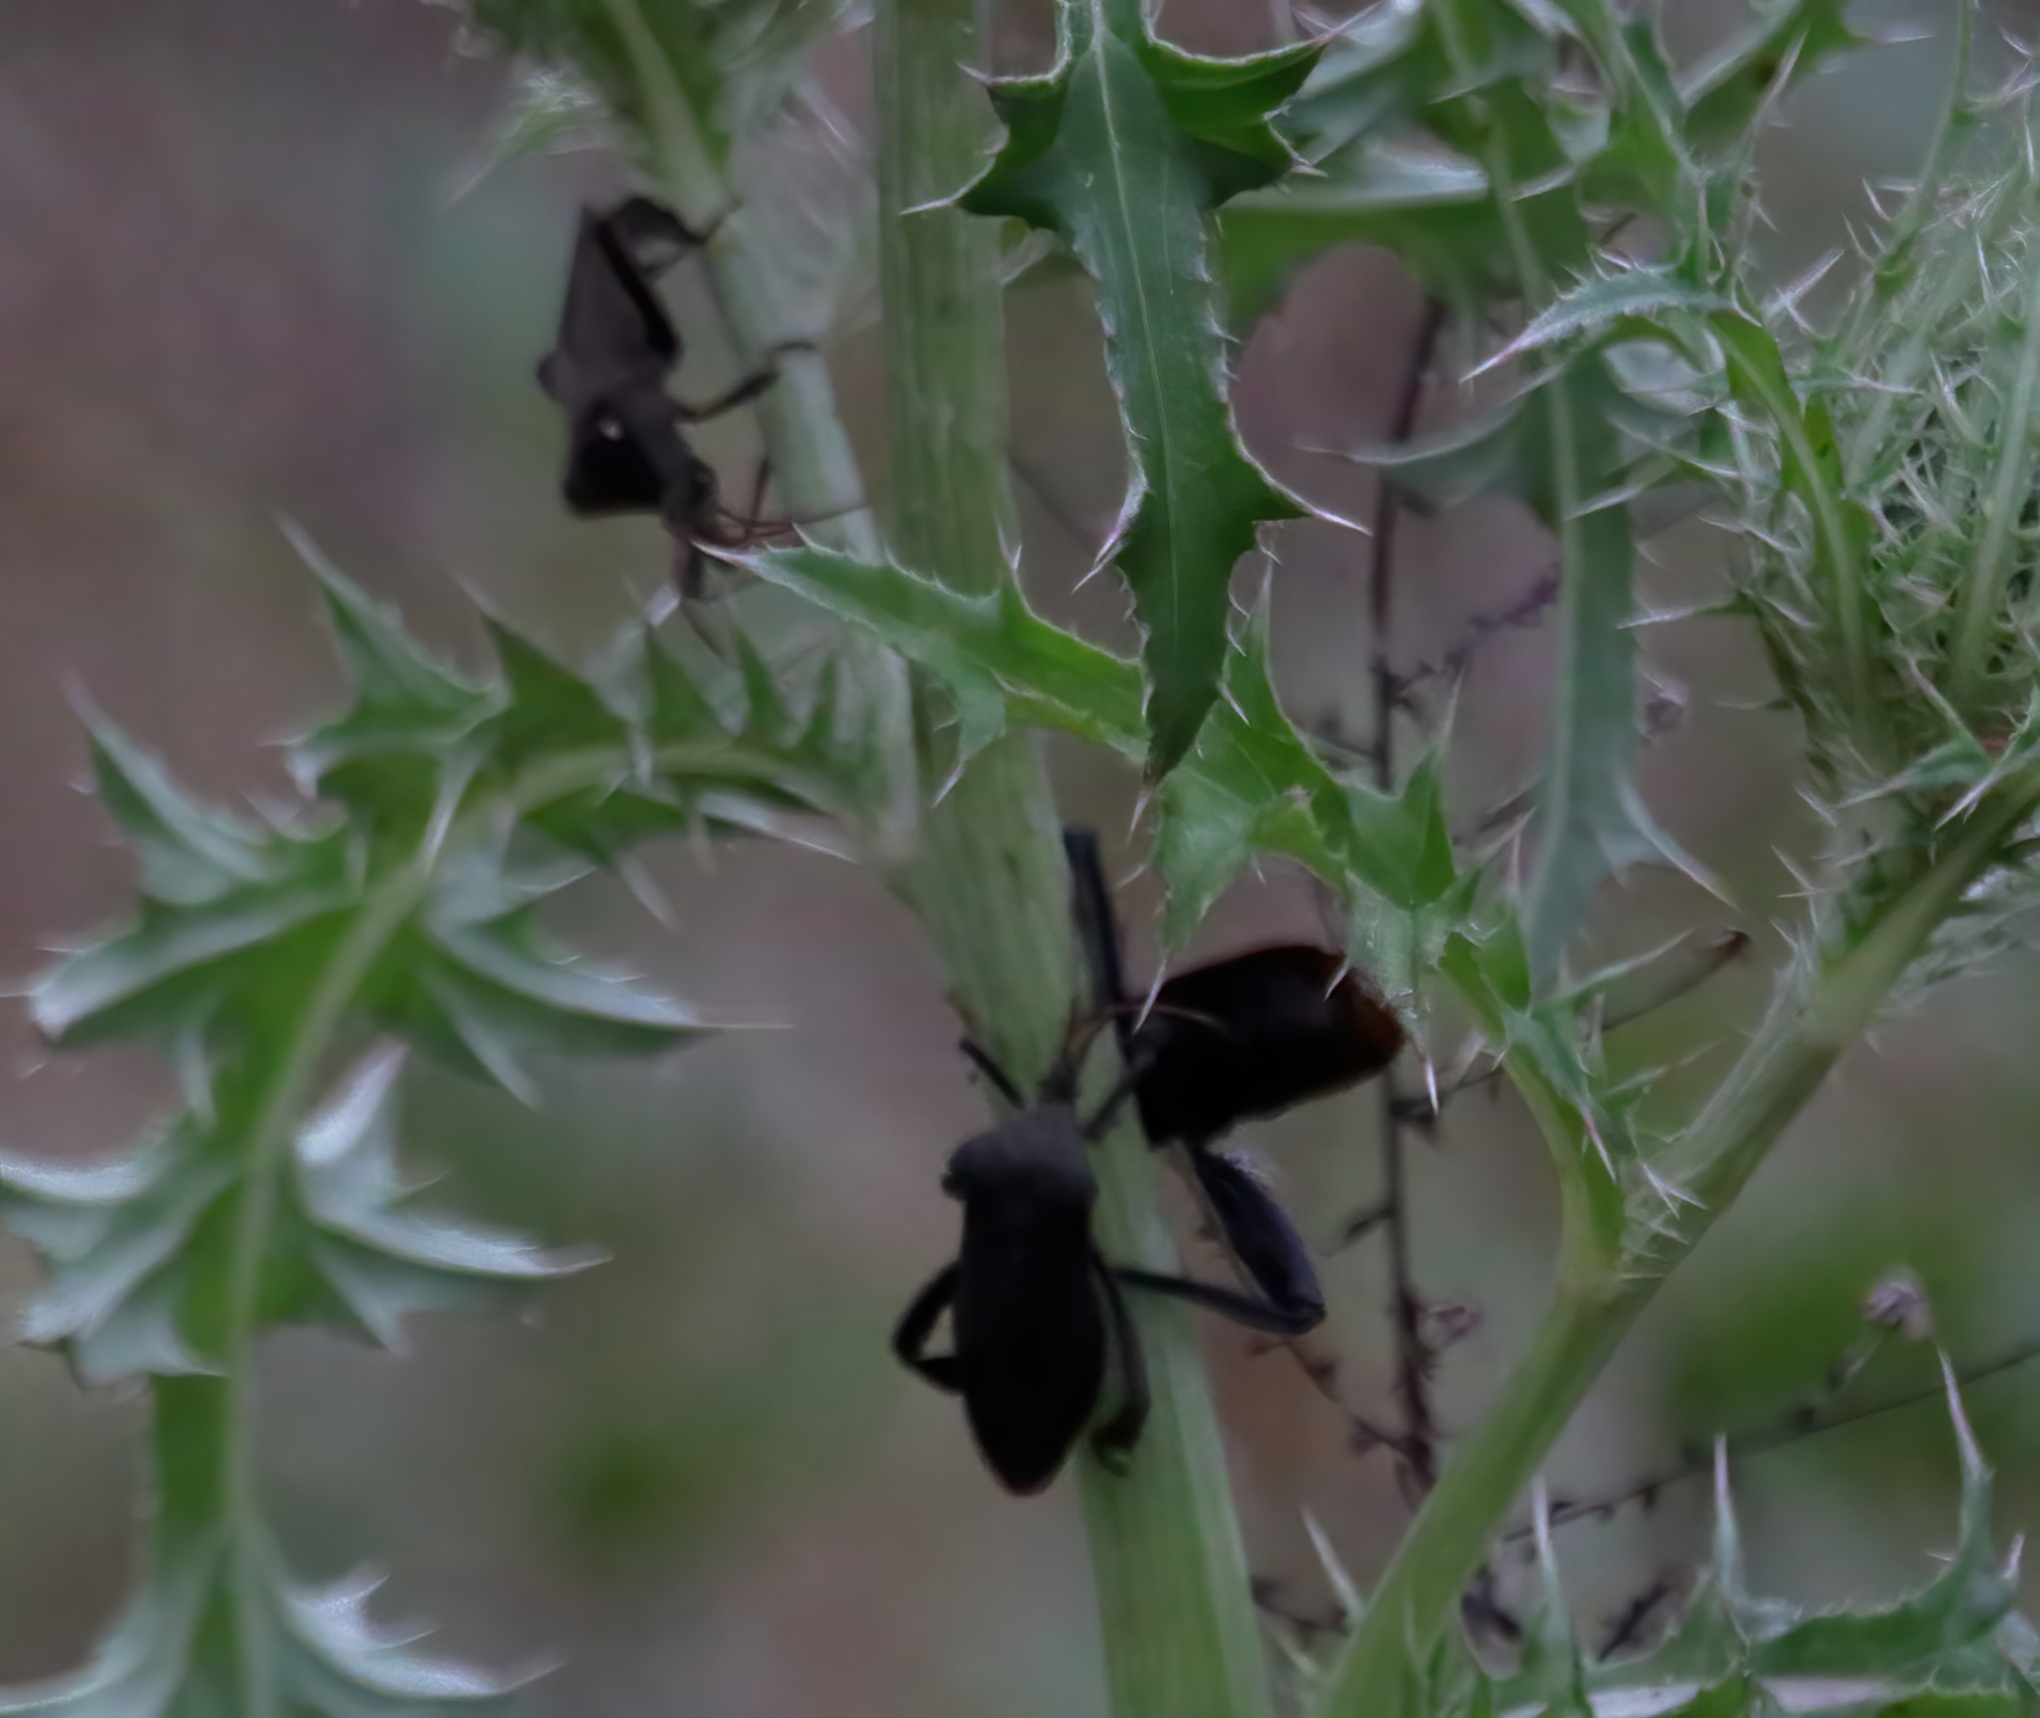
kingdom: Animalia
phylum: Arthropoda
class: Insecta
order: Hemiptera
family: Coreidae
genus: Acanthocephala
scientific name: Acanthocephala femorata
